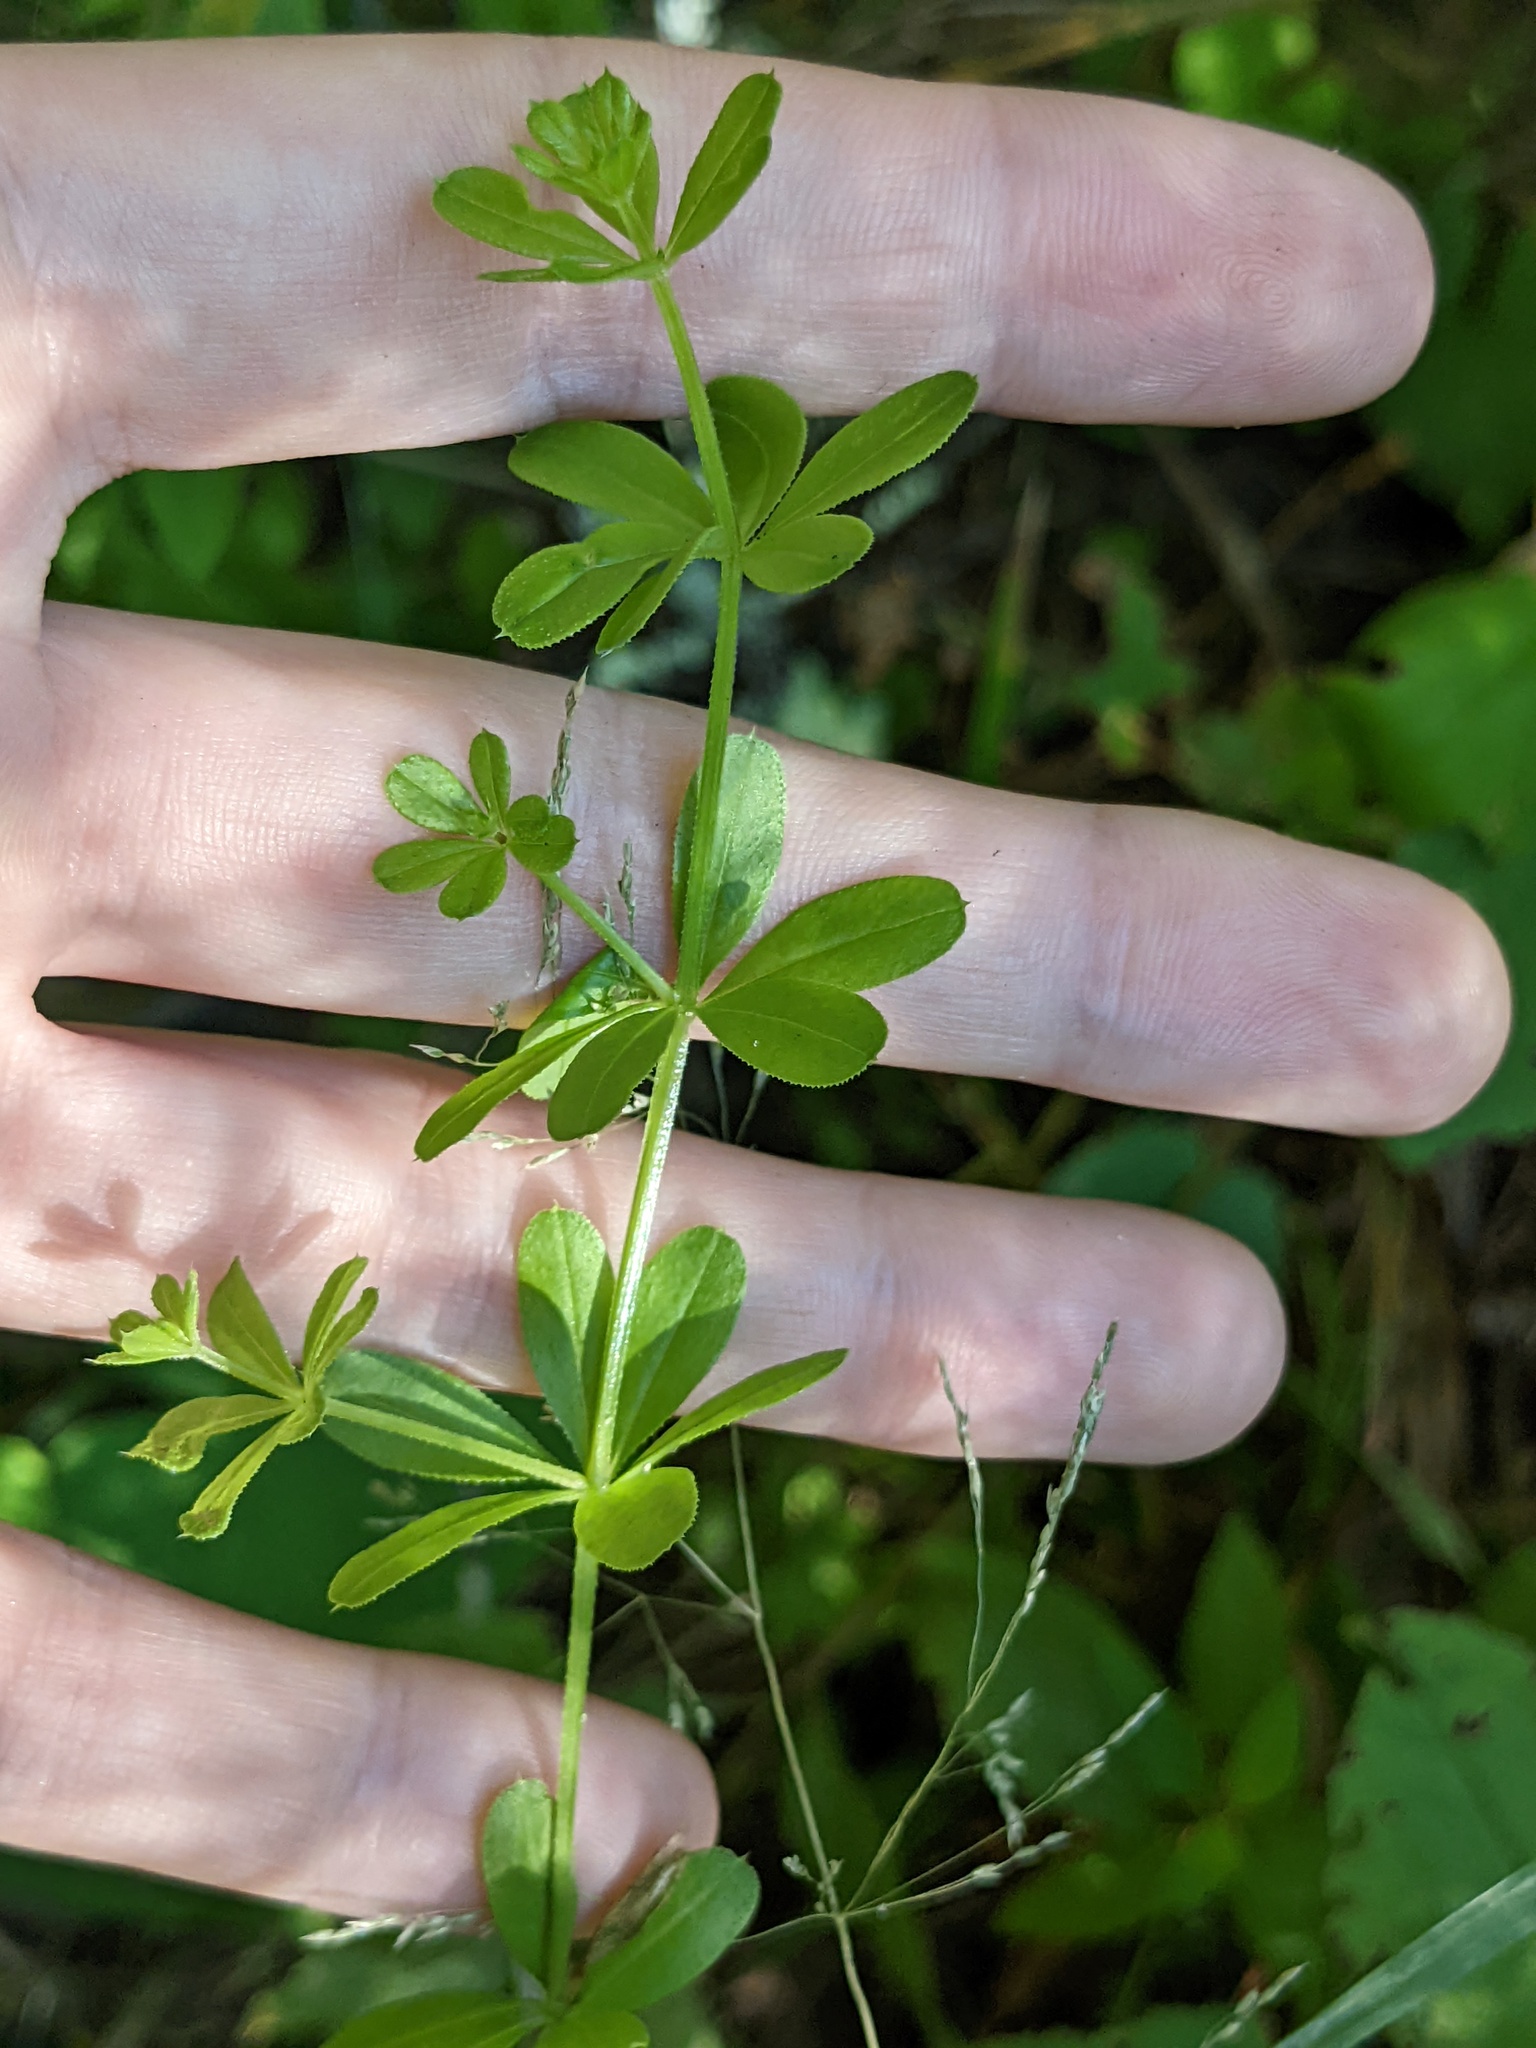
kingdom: Plantae
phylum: Tracheophyta
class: Magnoliopsida
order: Gentianales
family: Rubiaceae
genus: Galium
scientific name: Galium asprellum
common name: Rough bedstraw
